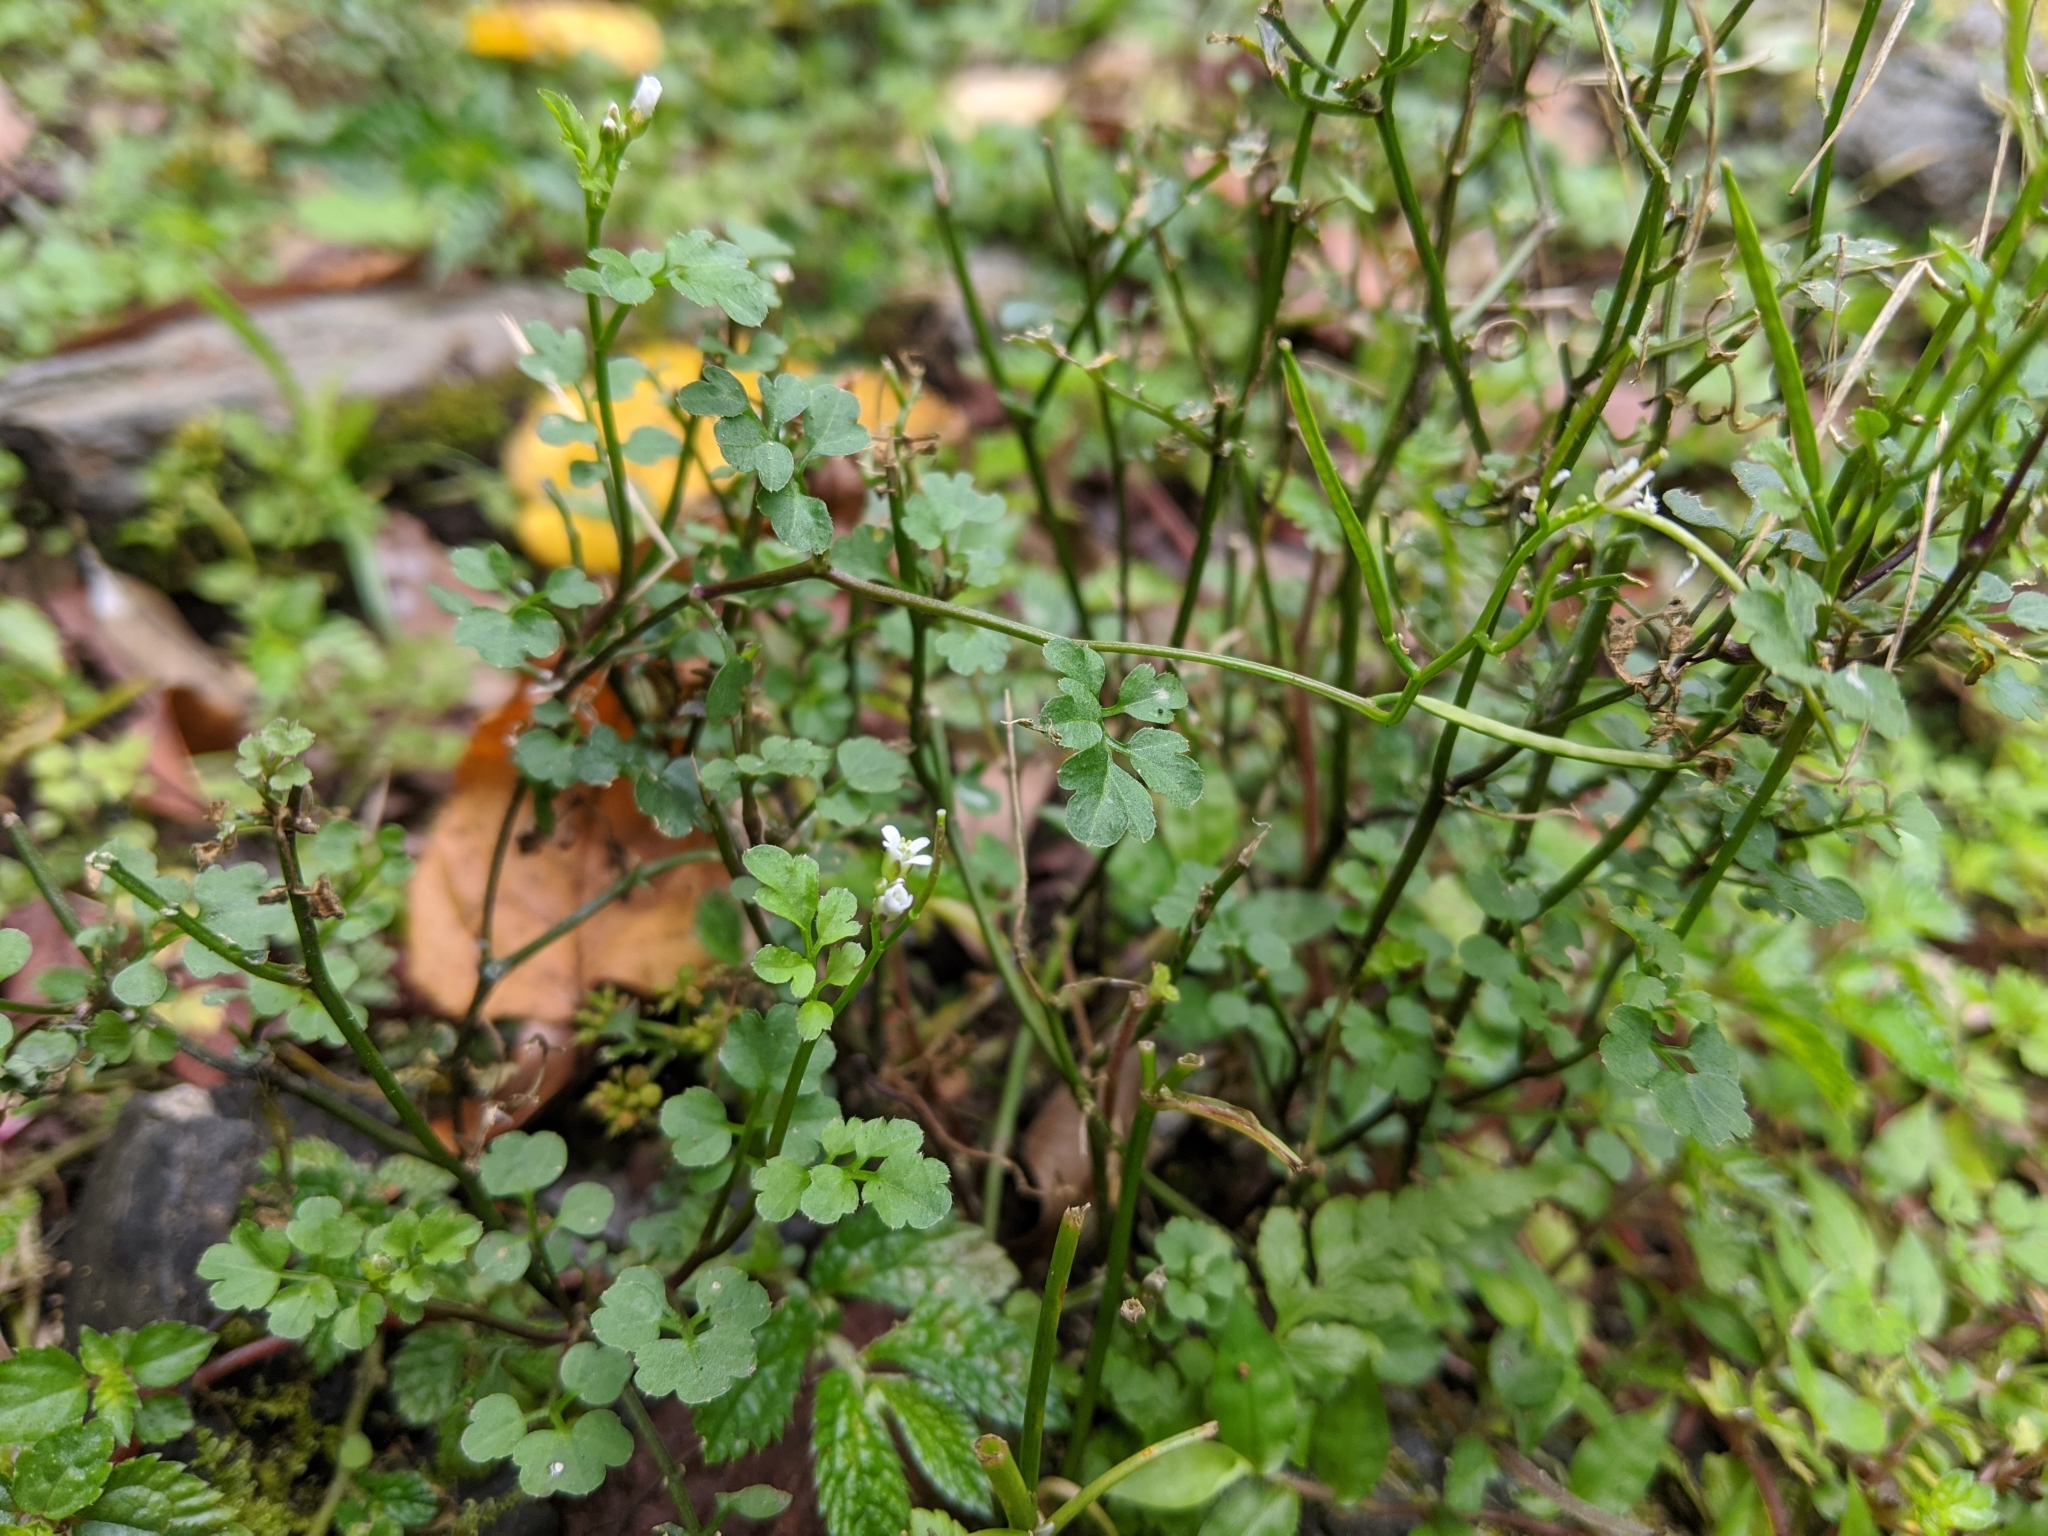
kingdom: Plantae
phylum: Tracheophyta
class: Magnoliopsida
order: Brassicales
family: Brassicaceae
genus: Cardamine
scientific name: Cardamine flexuosa
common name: Woodland bittercress
